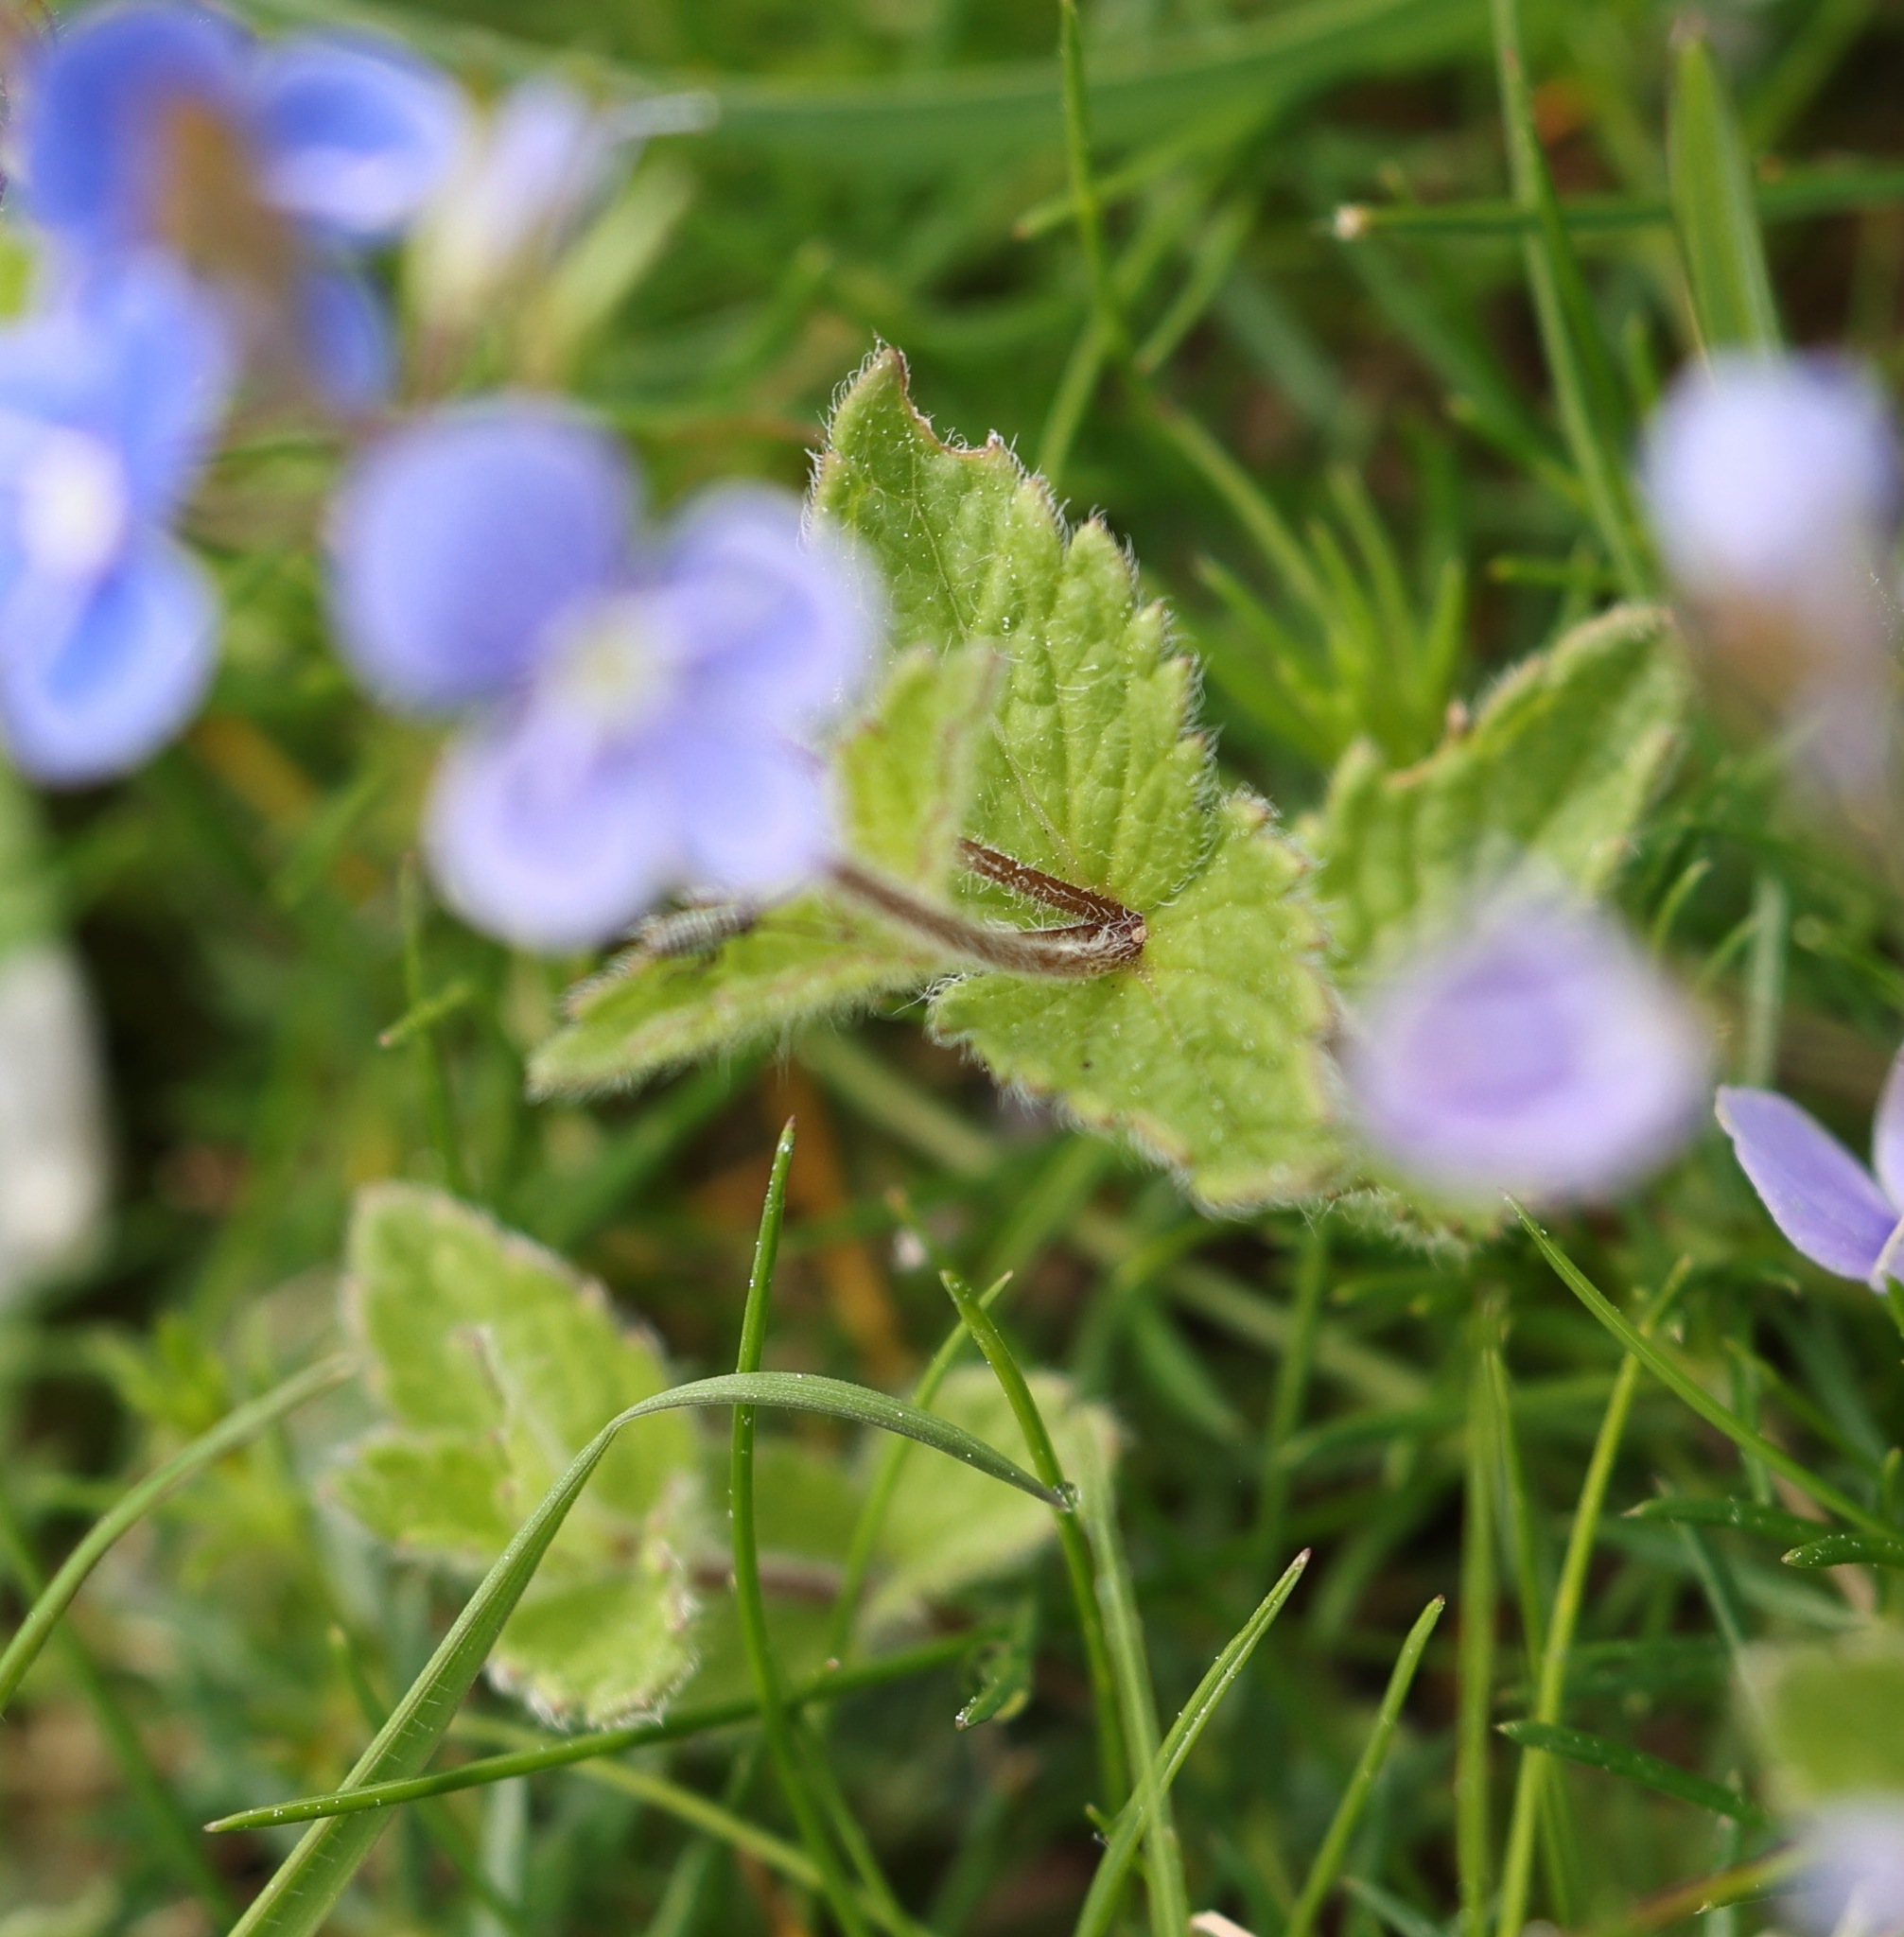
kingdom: Plantae
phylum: Tracheophyta
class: Magnoliopsida
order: Lamiales
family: Plantaginaceae
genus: Veronica
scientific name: Veronica chamaedrys
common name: Germander speedwell
